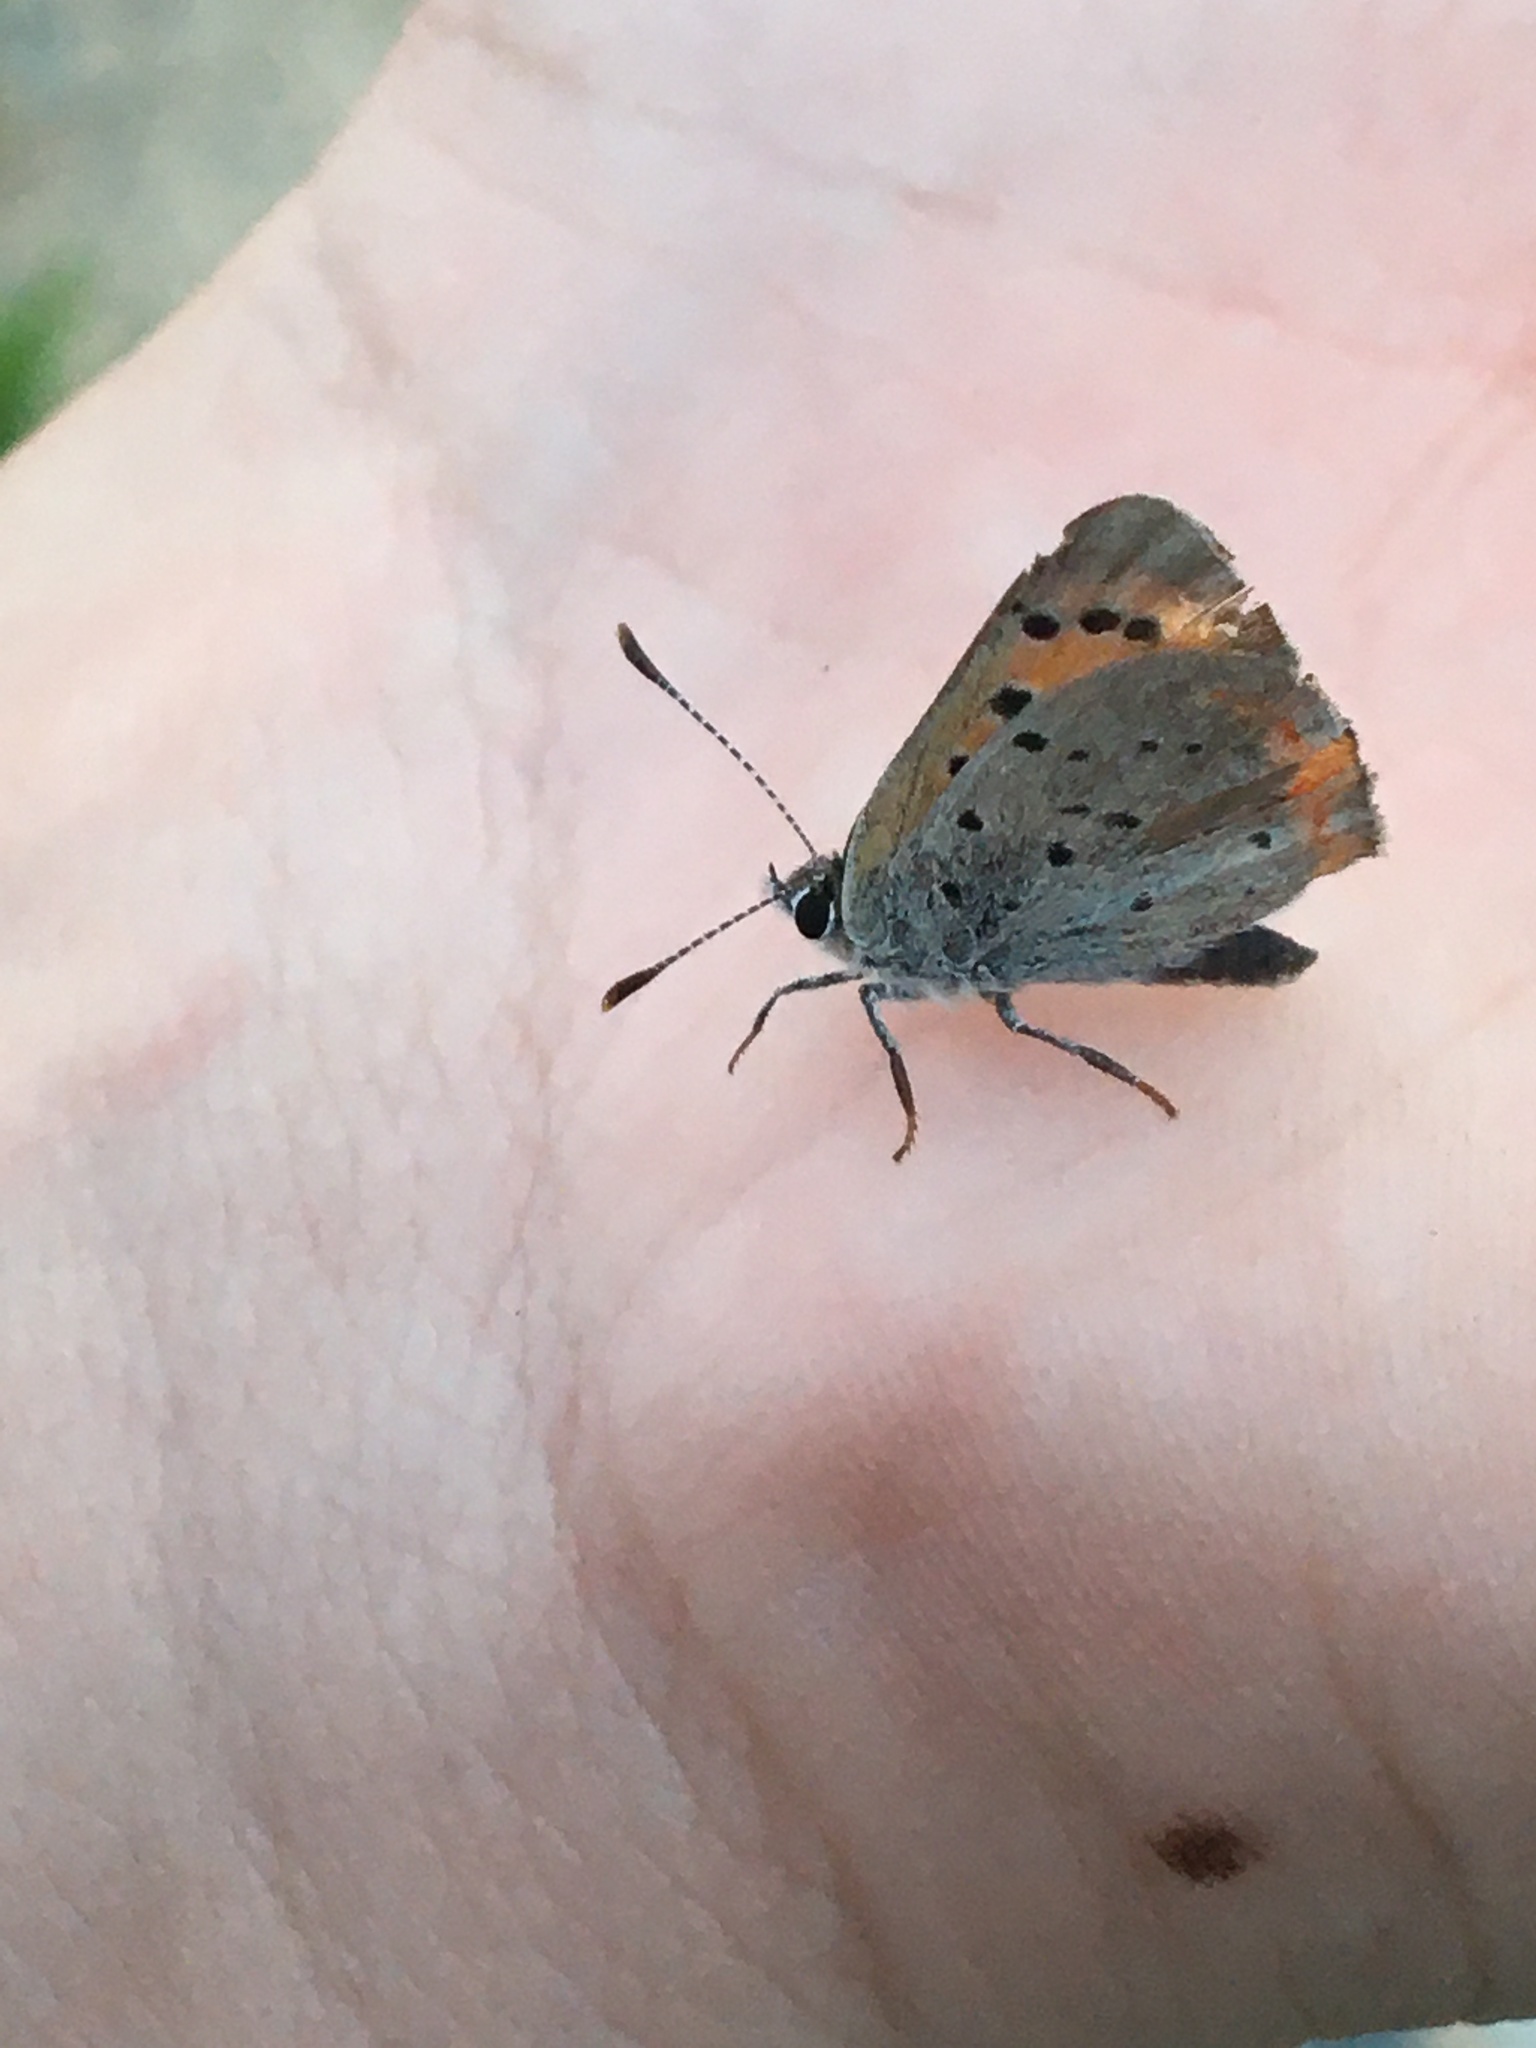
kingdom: Animalia
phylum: Arthropoda
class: Insecta
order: Lepidoptera
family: Lycaenidae
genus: Lycaena
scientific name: Lycaena hypophlaeas
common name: American copper
